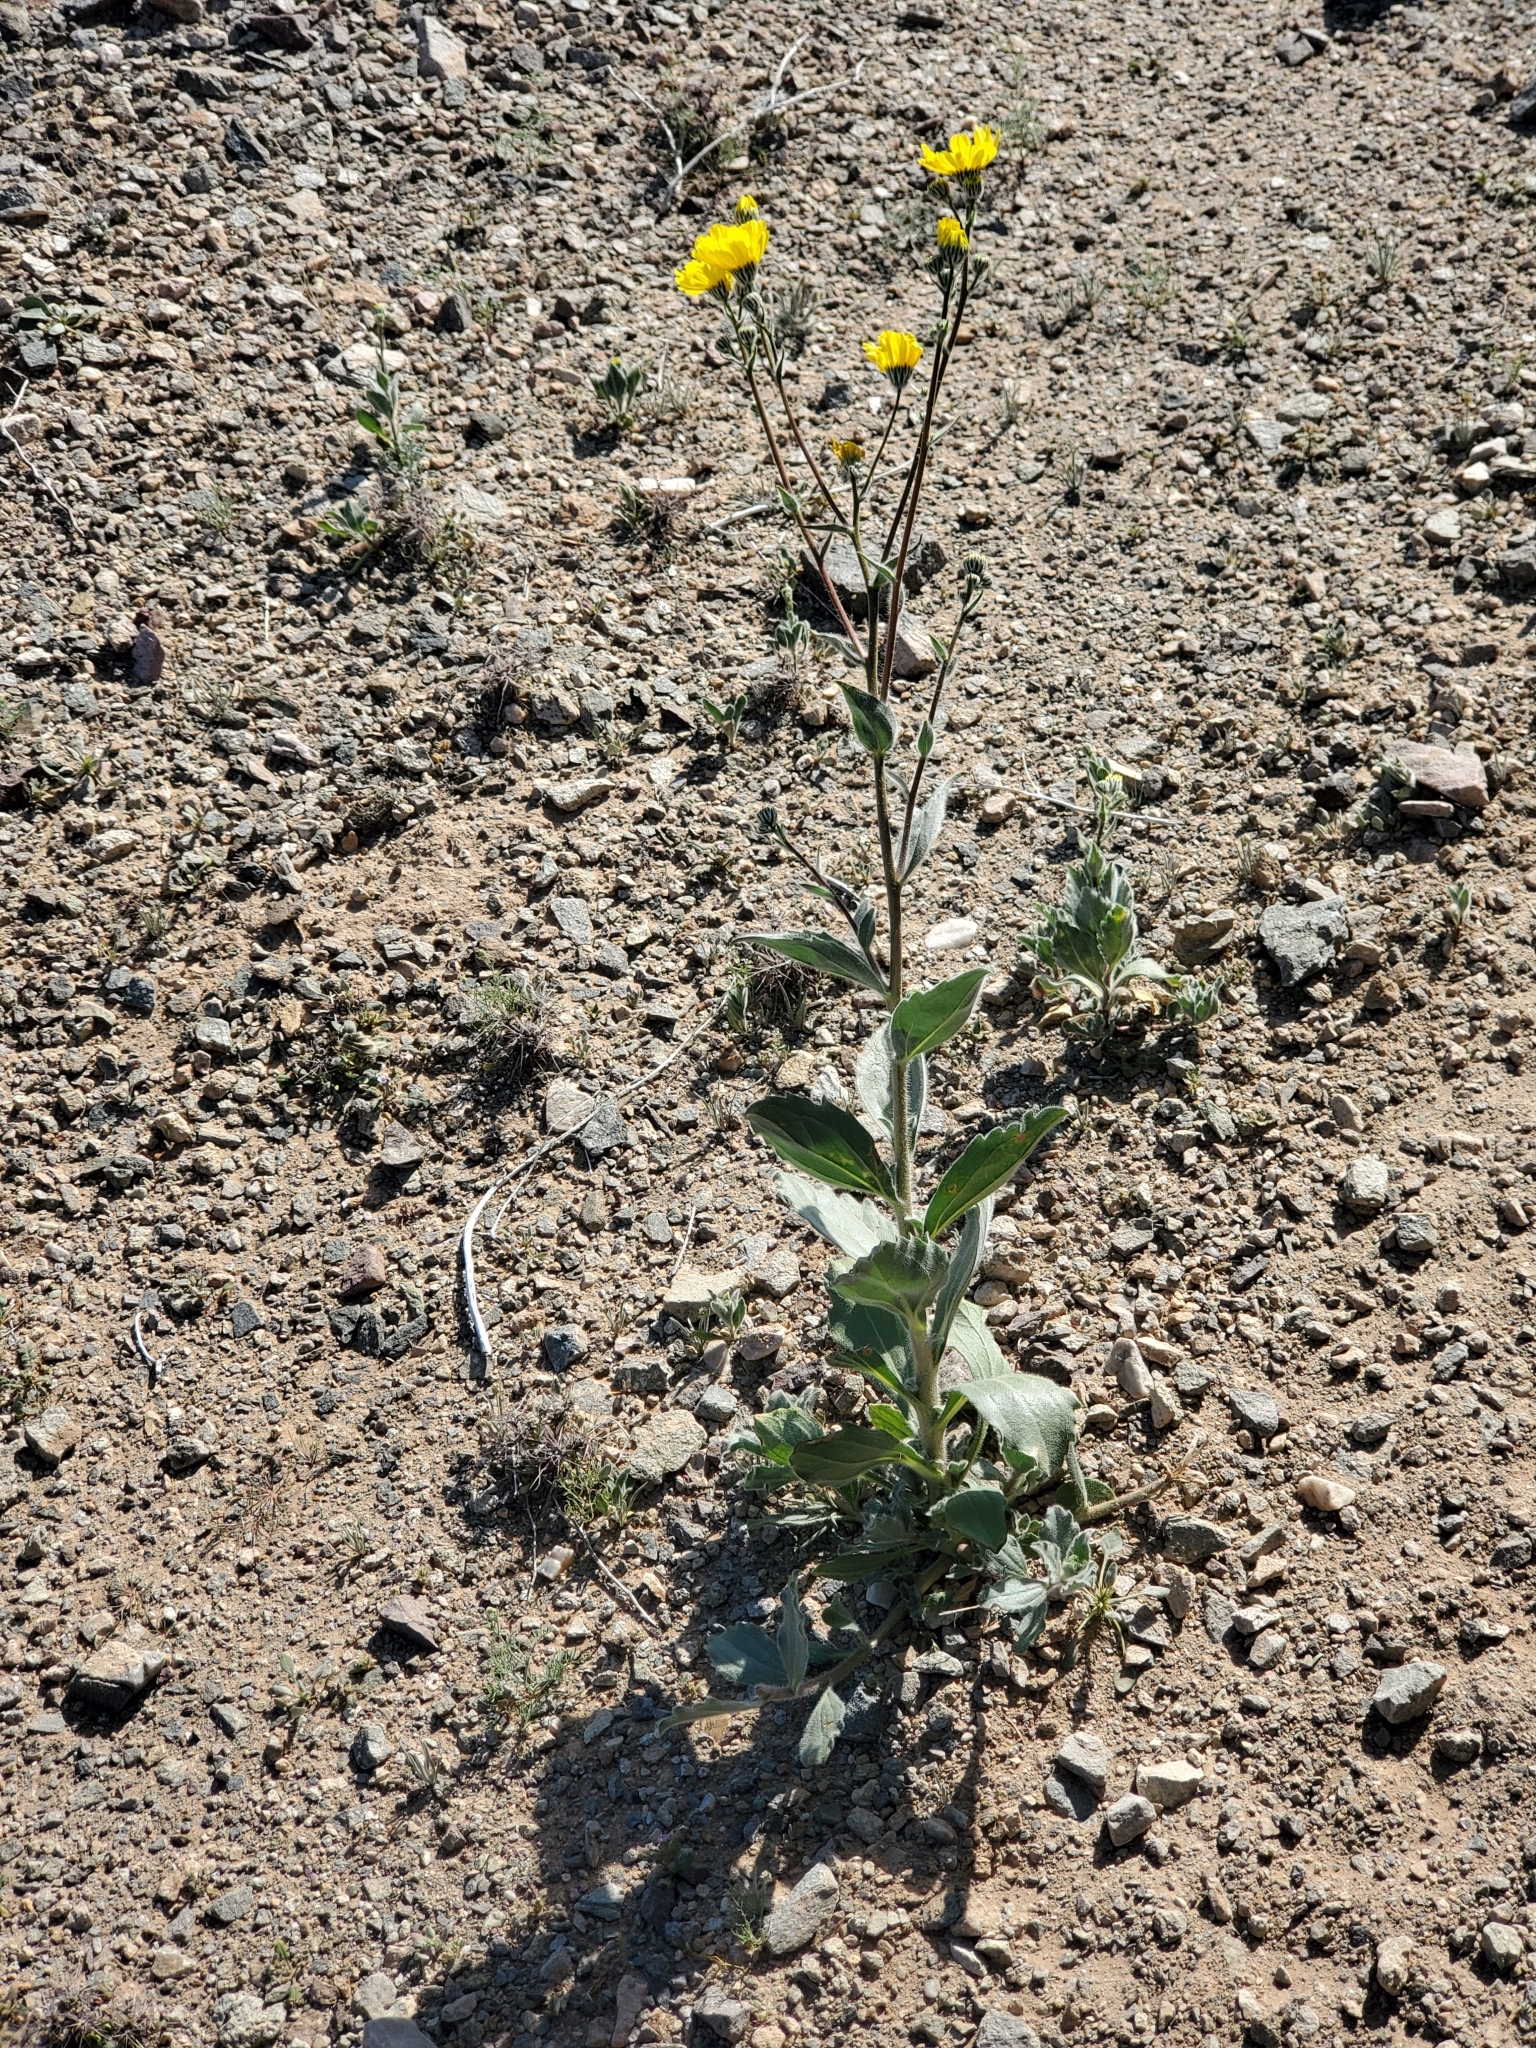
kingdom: Plantae
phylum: Tracheophyta
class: Magnoliopsida
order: Asterales
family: Asteraceae
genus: Geraea
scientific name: Geraea canescens
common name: Desert-gold
